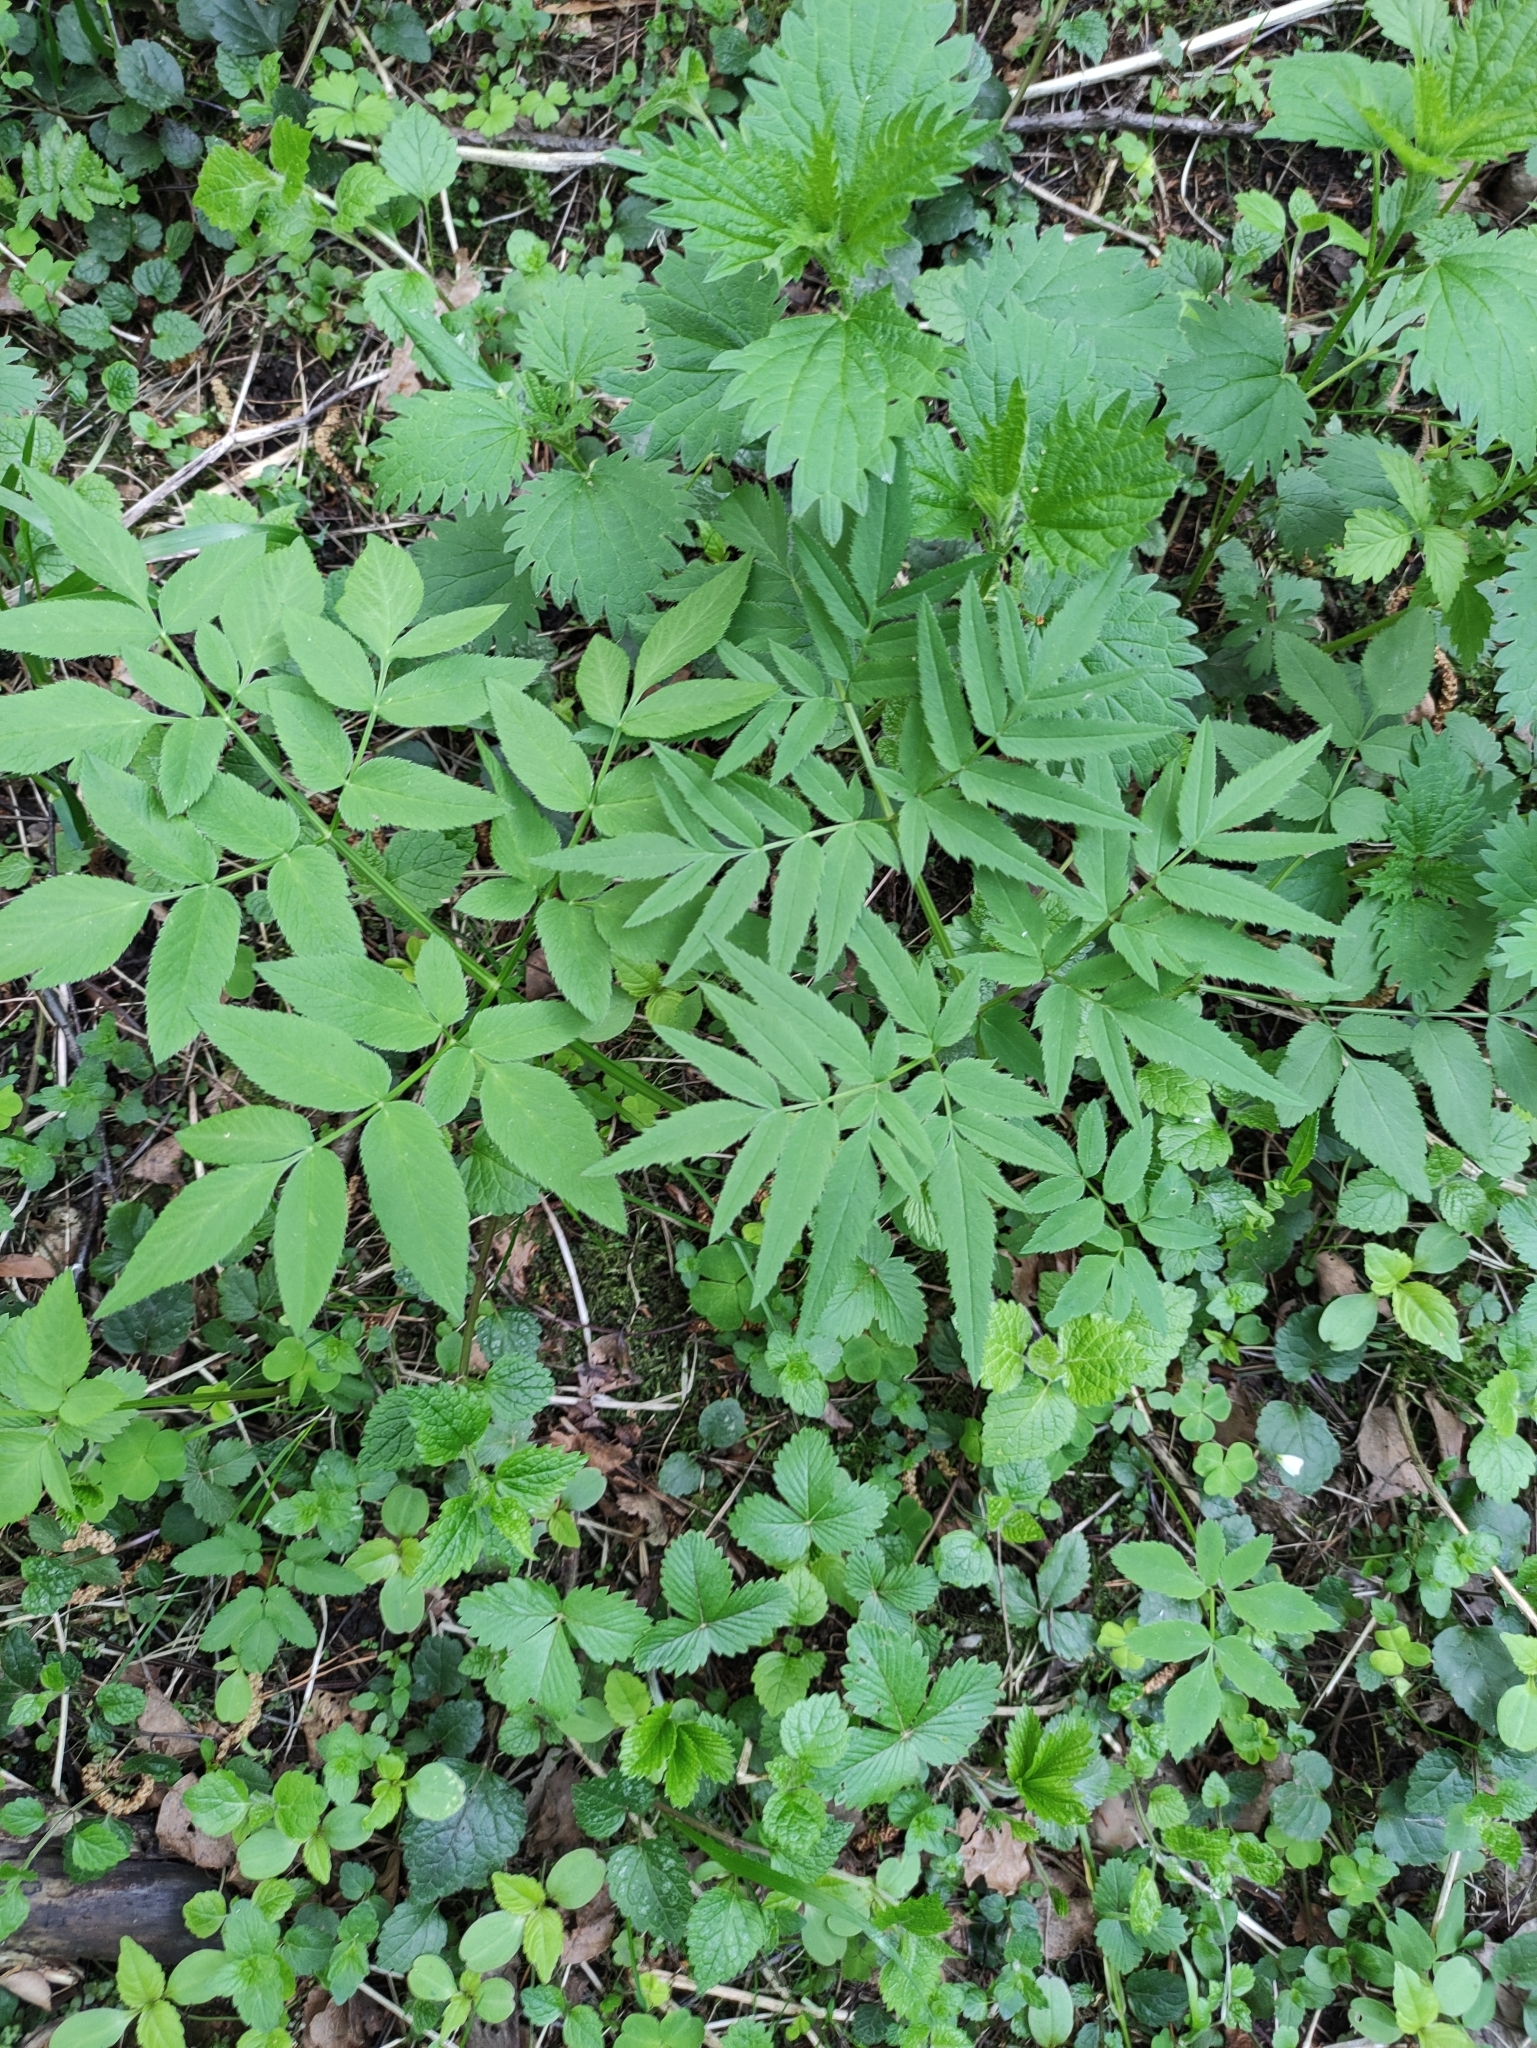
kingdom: Plantae
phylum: Tracheophyta
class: Magnoliopsida
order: Apiales
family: Apiaceae
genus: Angelica
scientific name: Angelica sylvestris
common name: Wild angelica
